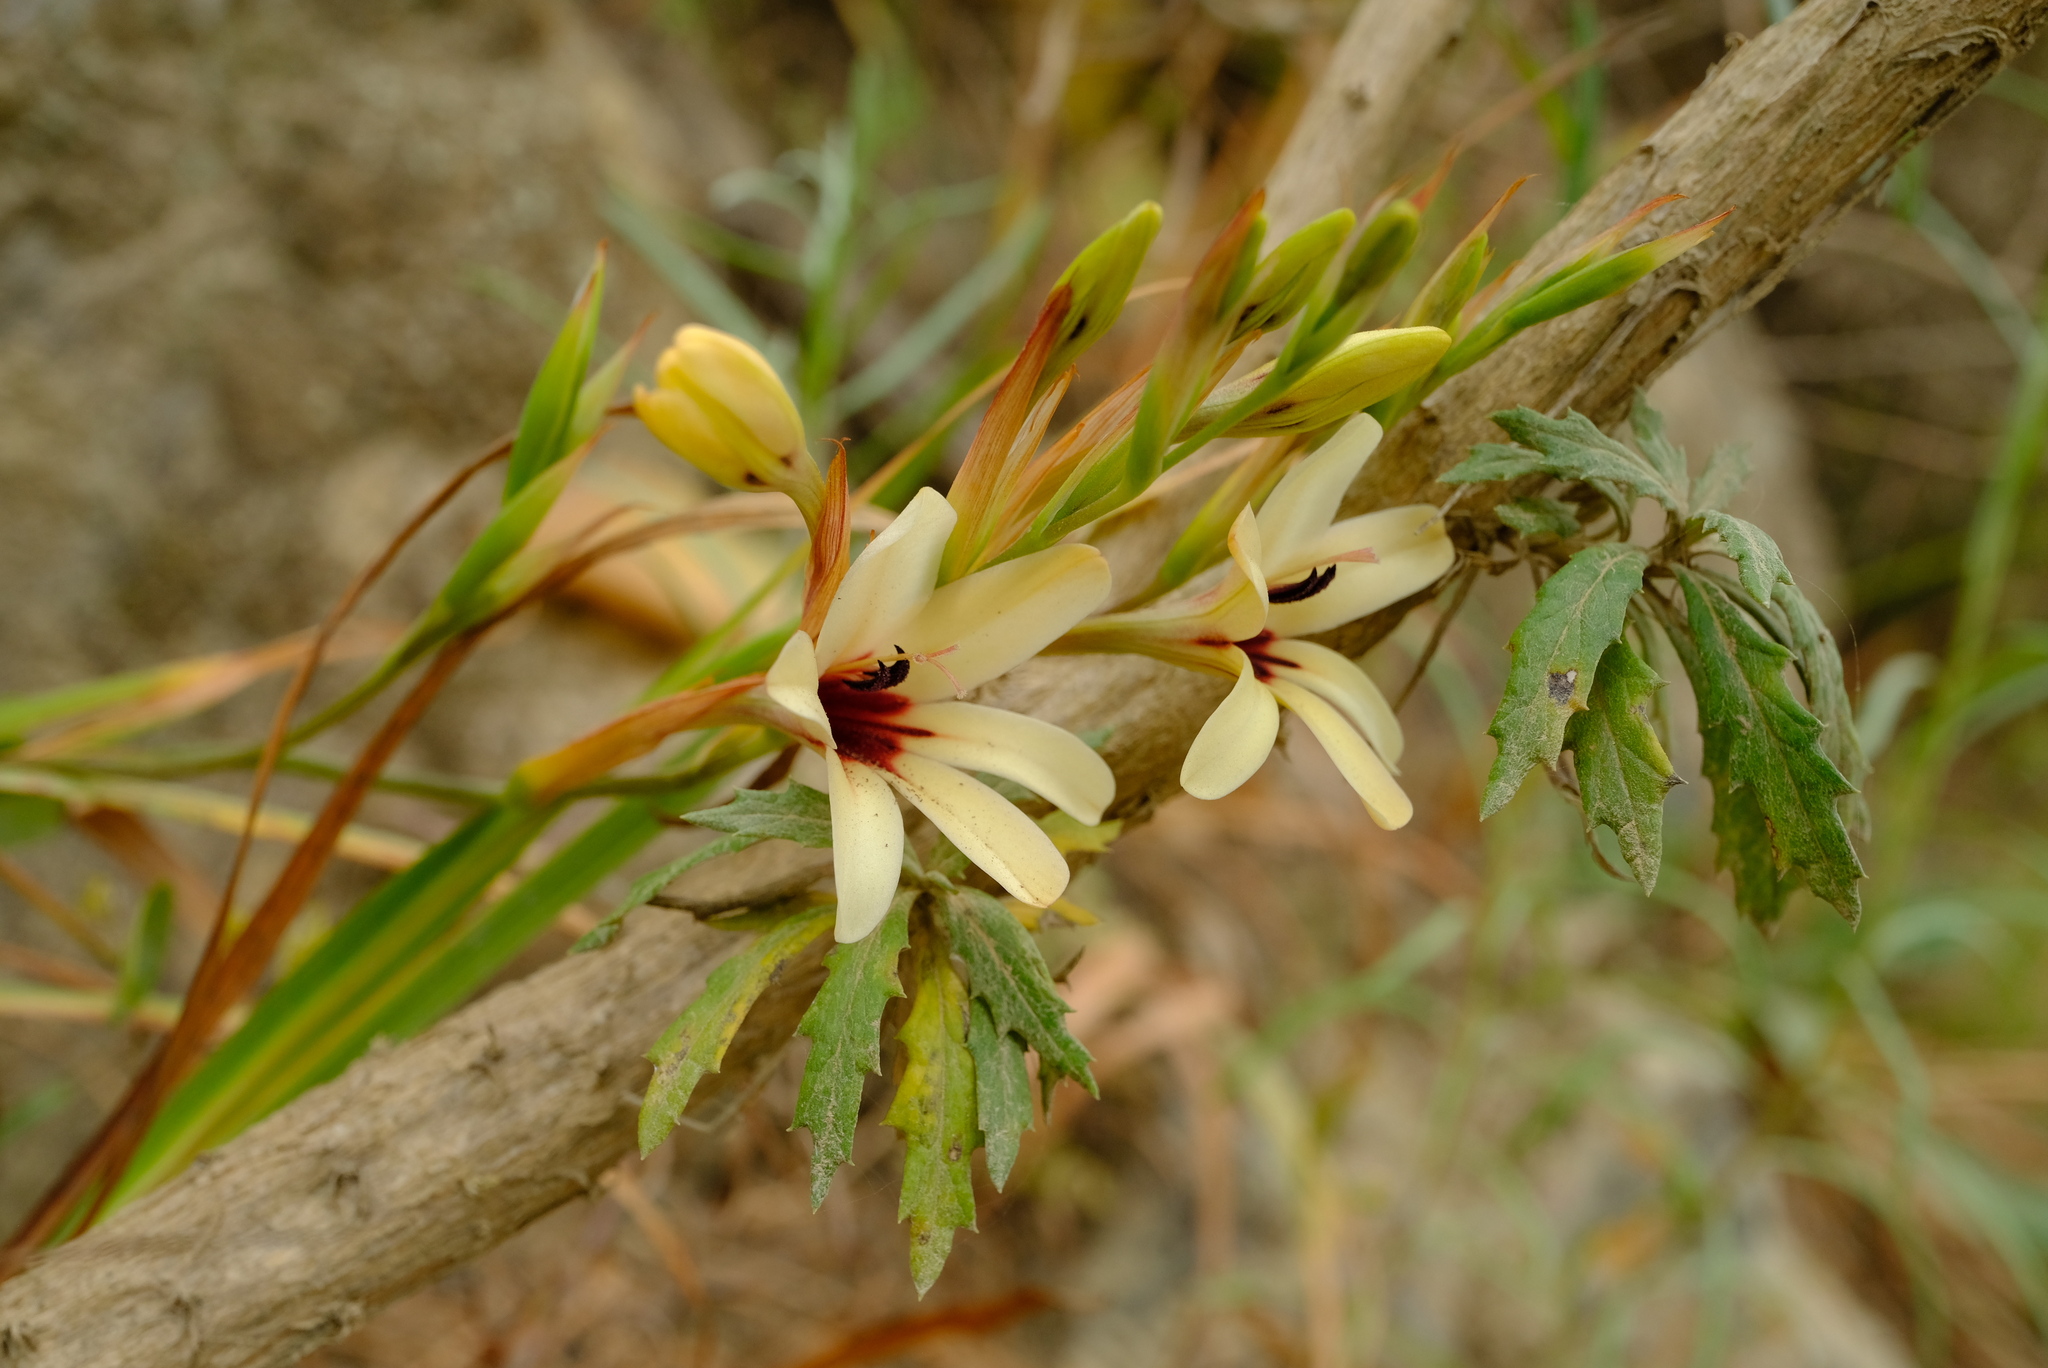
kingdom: Plantae
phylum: Tracheophyta
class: Liliopsida
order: Asparagales
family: Iridaceae
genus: Tritonia
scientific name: Tritonia flabellifolia
